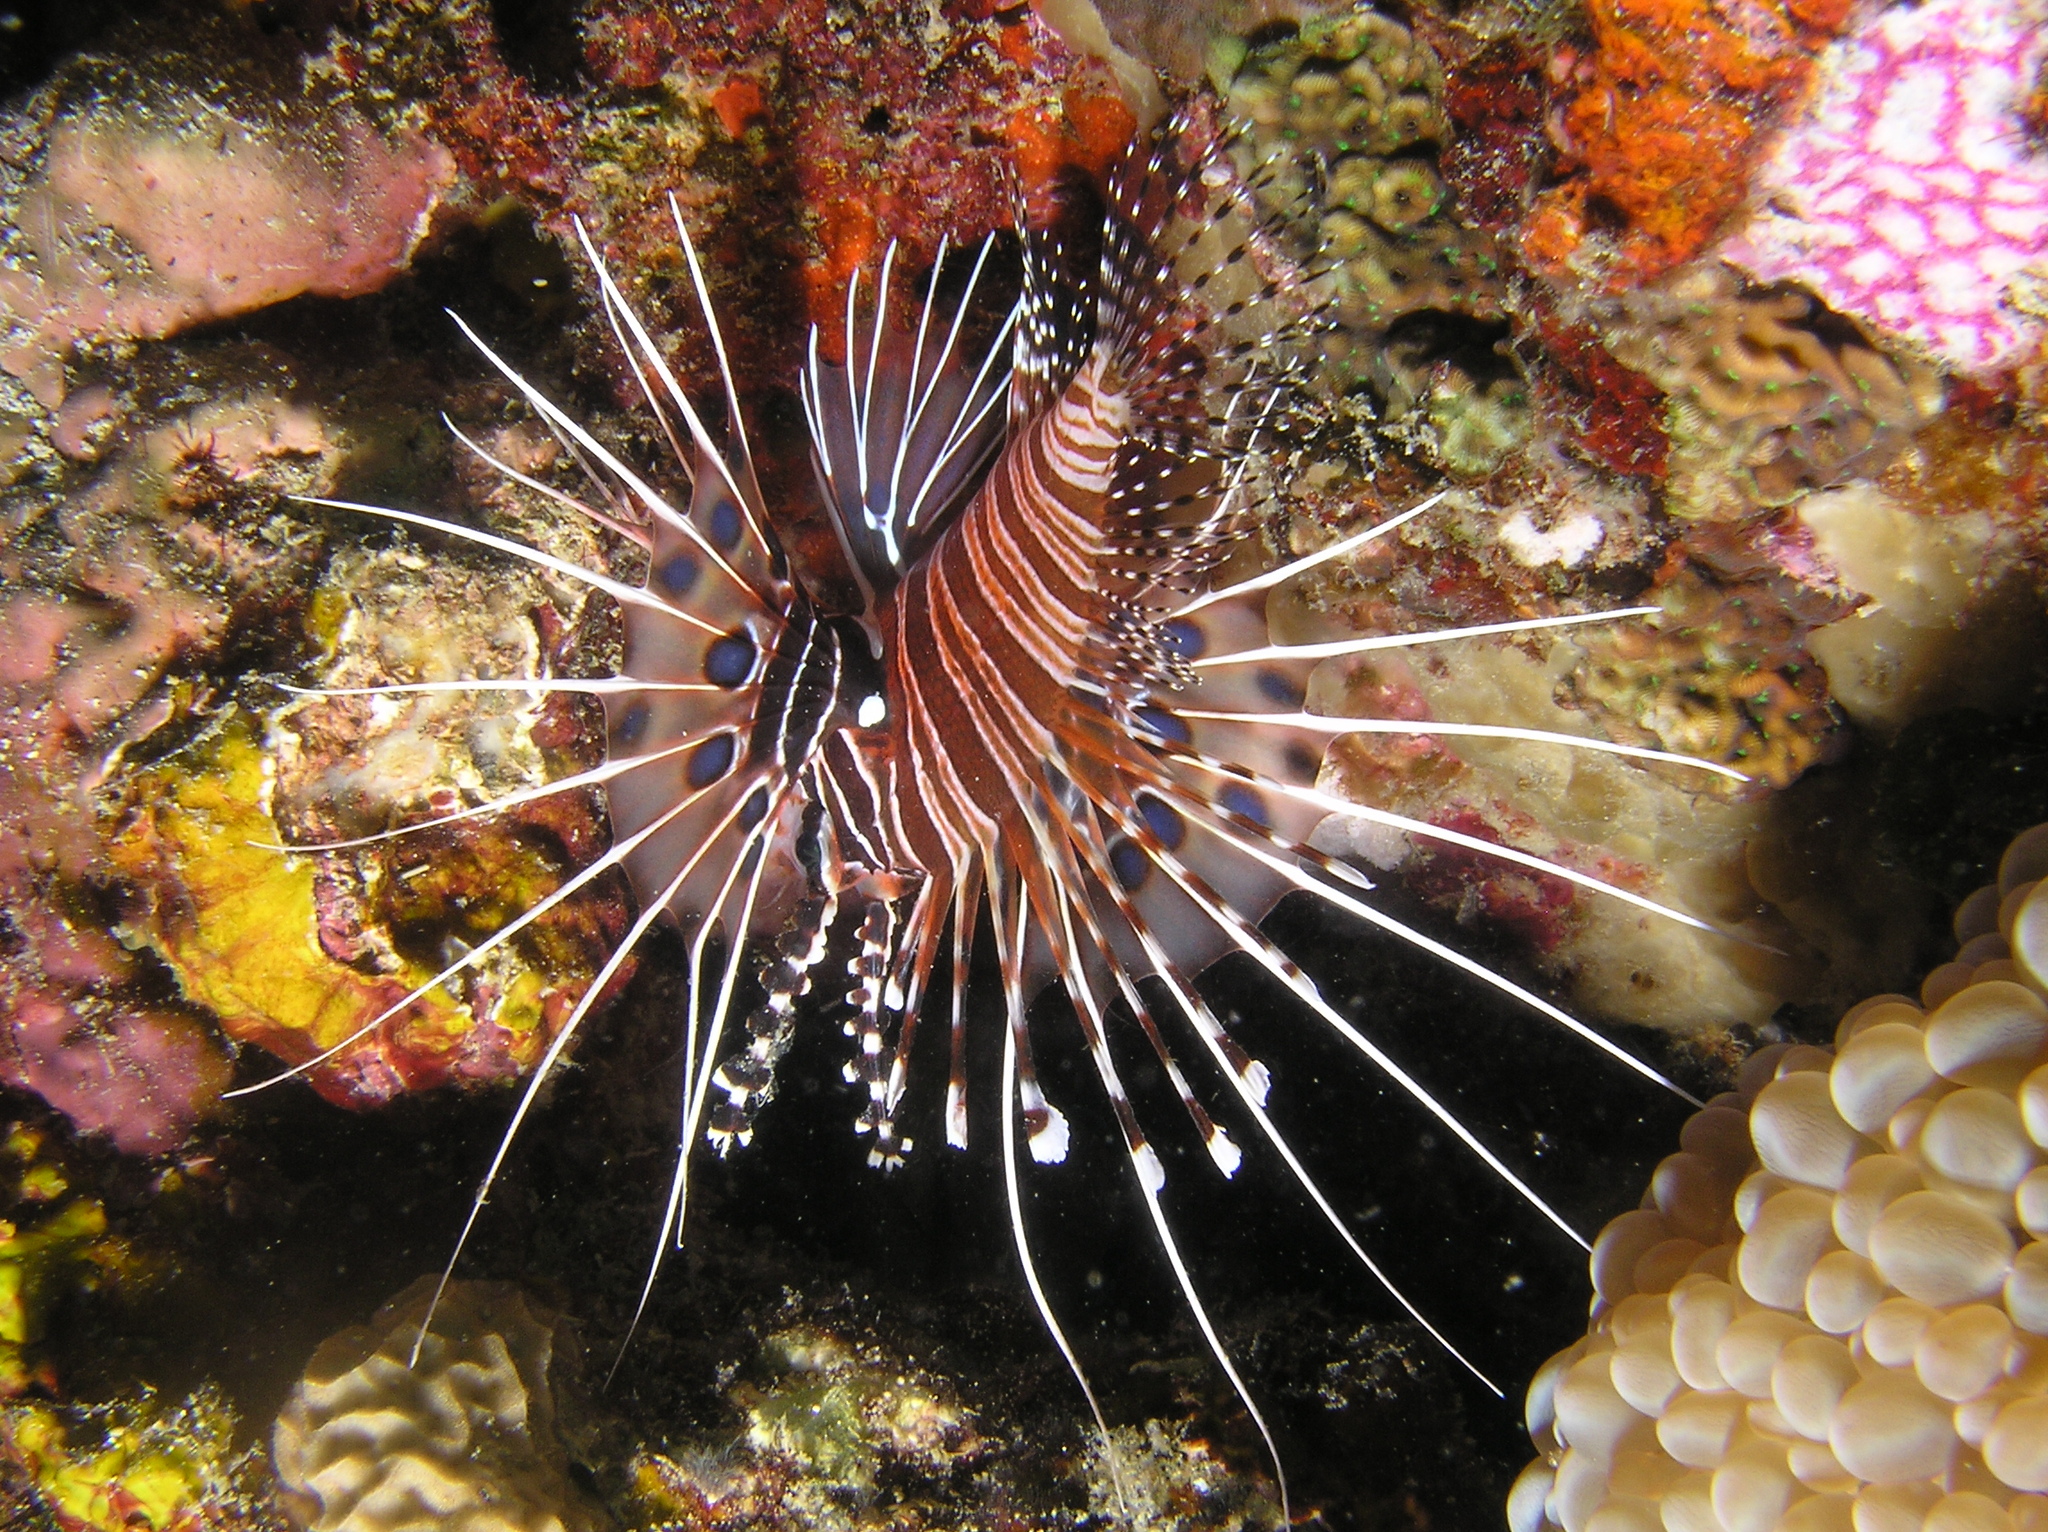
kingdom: Animalia
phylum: Chordata
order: Scorpaeniformes
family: Scorpaenidae
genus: Pterois
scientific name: Pterois antennata
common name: Spotfin lionfish
